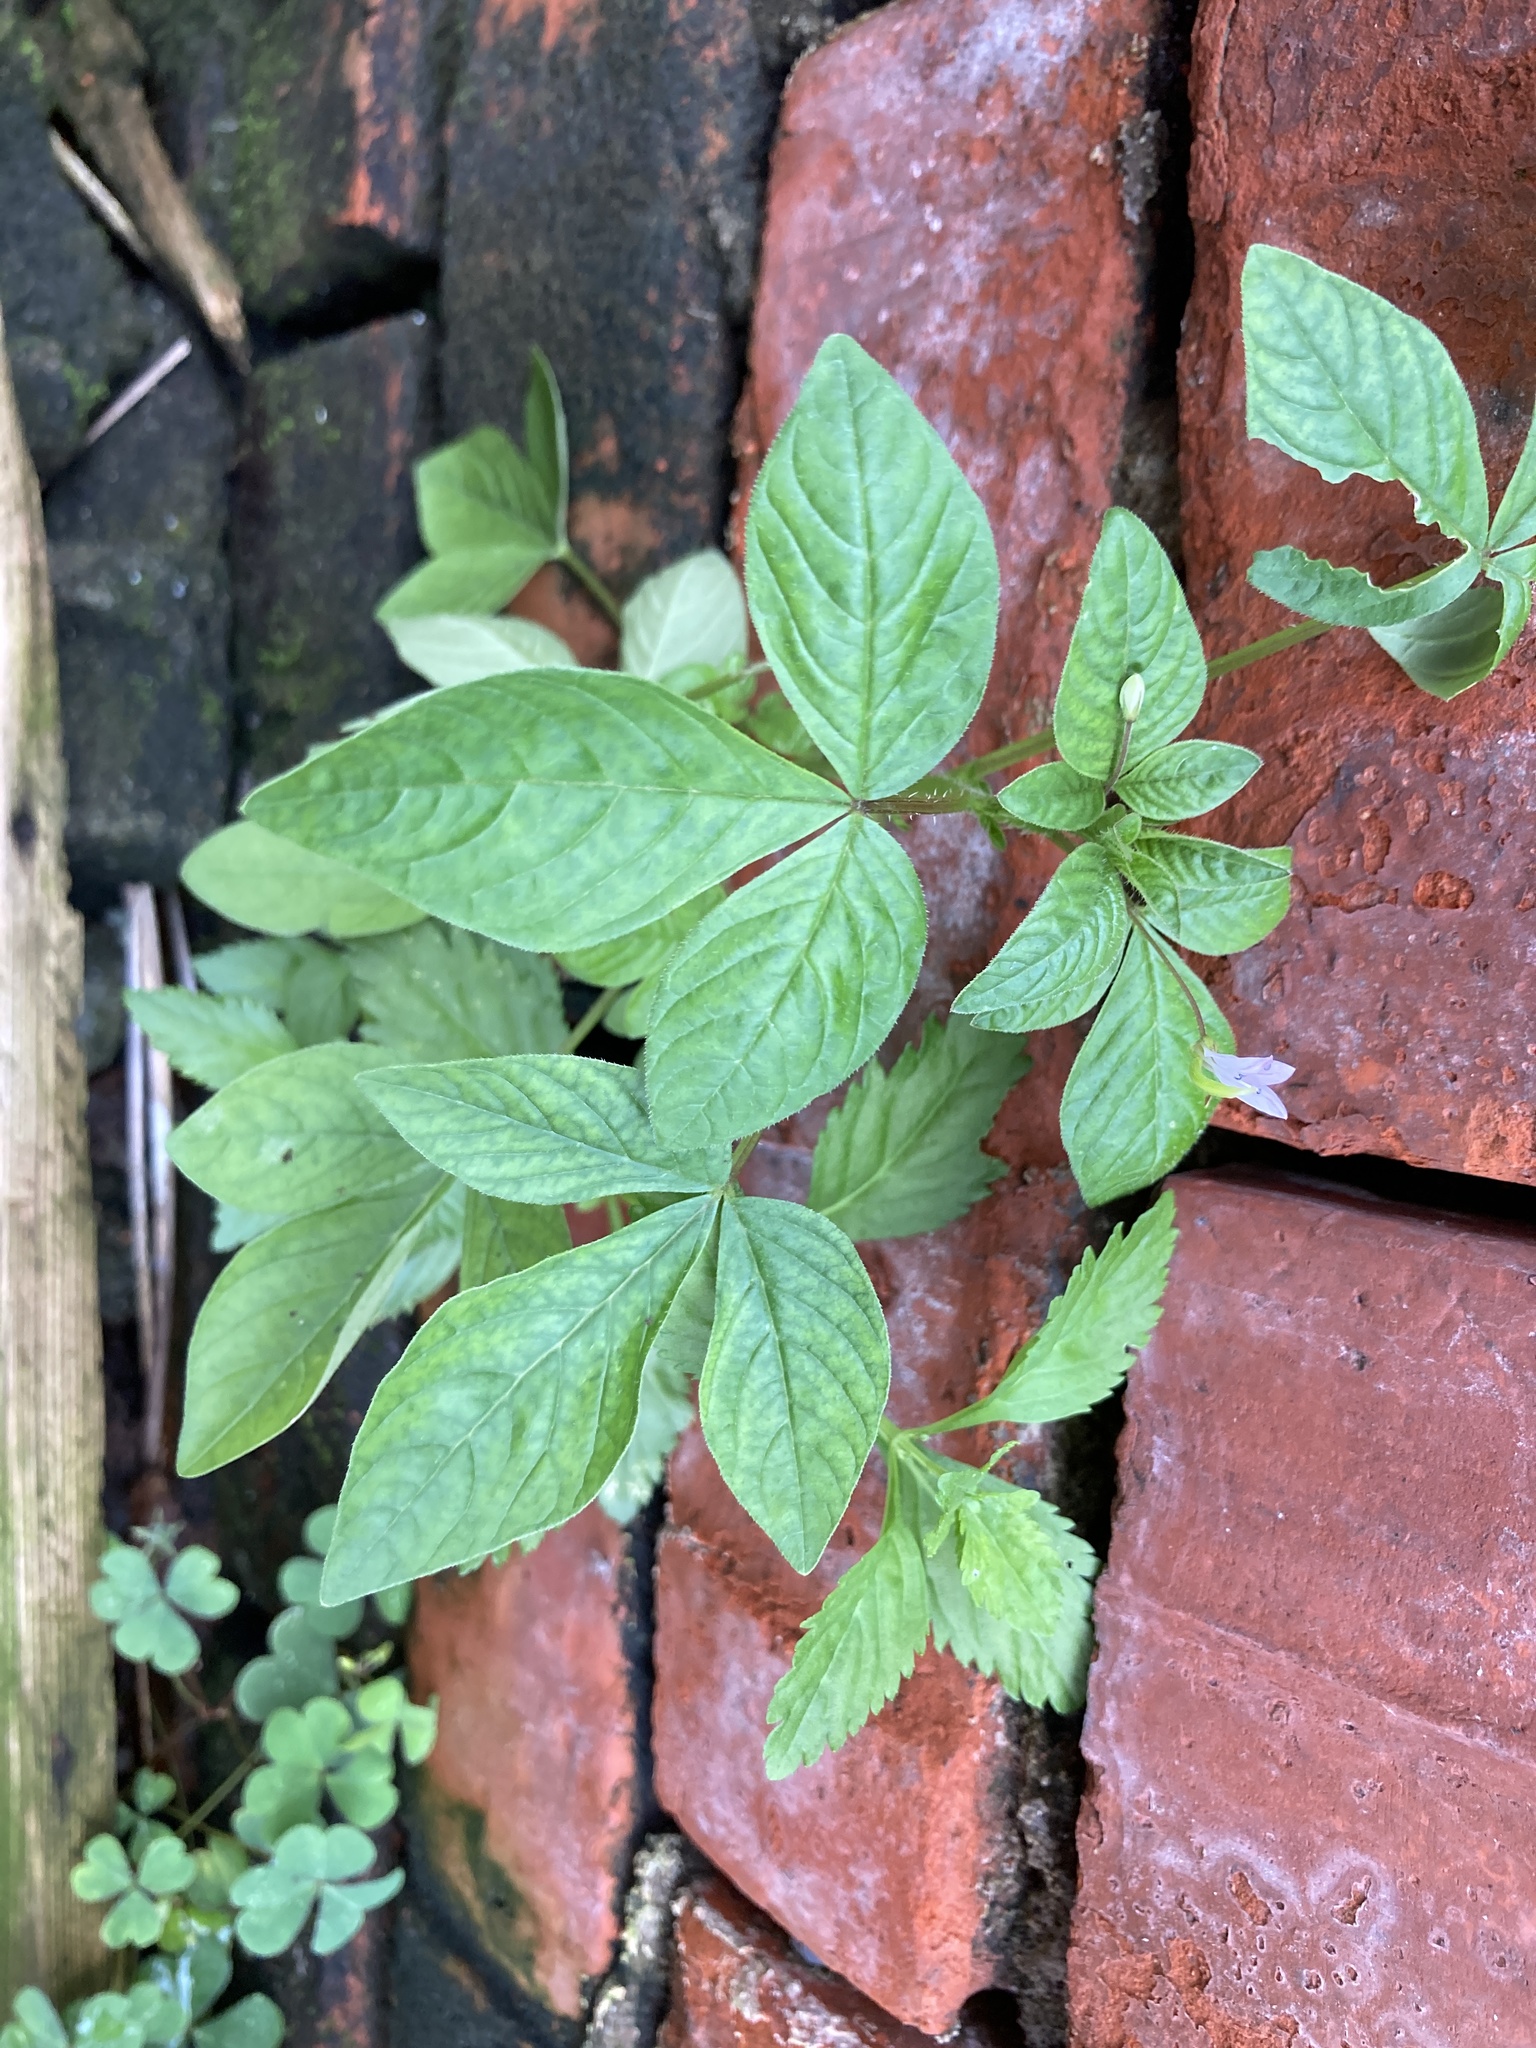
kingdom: Plantae
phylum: Tracheophyta
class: Magnoliopsida
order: Brassicales
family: Cleomaceae
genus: Sieruela
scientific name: Sieruela rutidosperma
